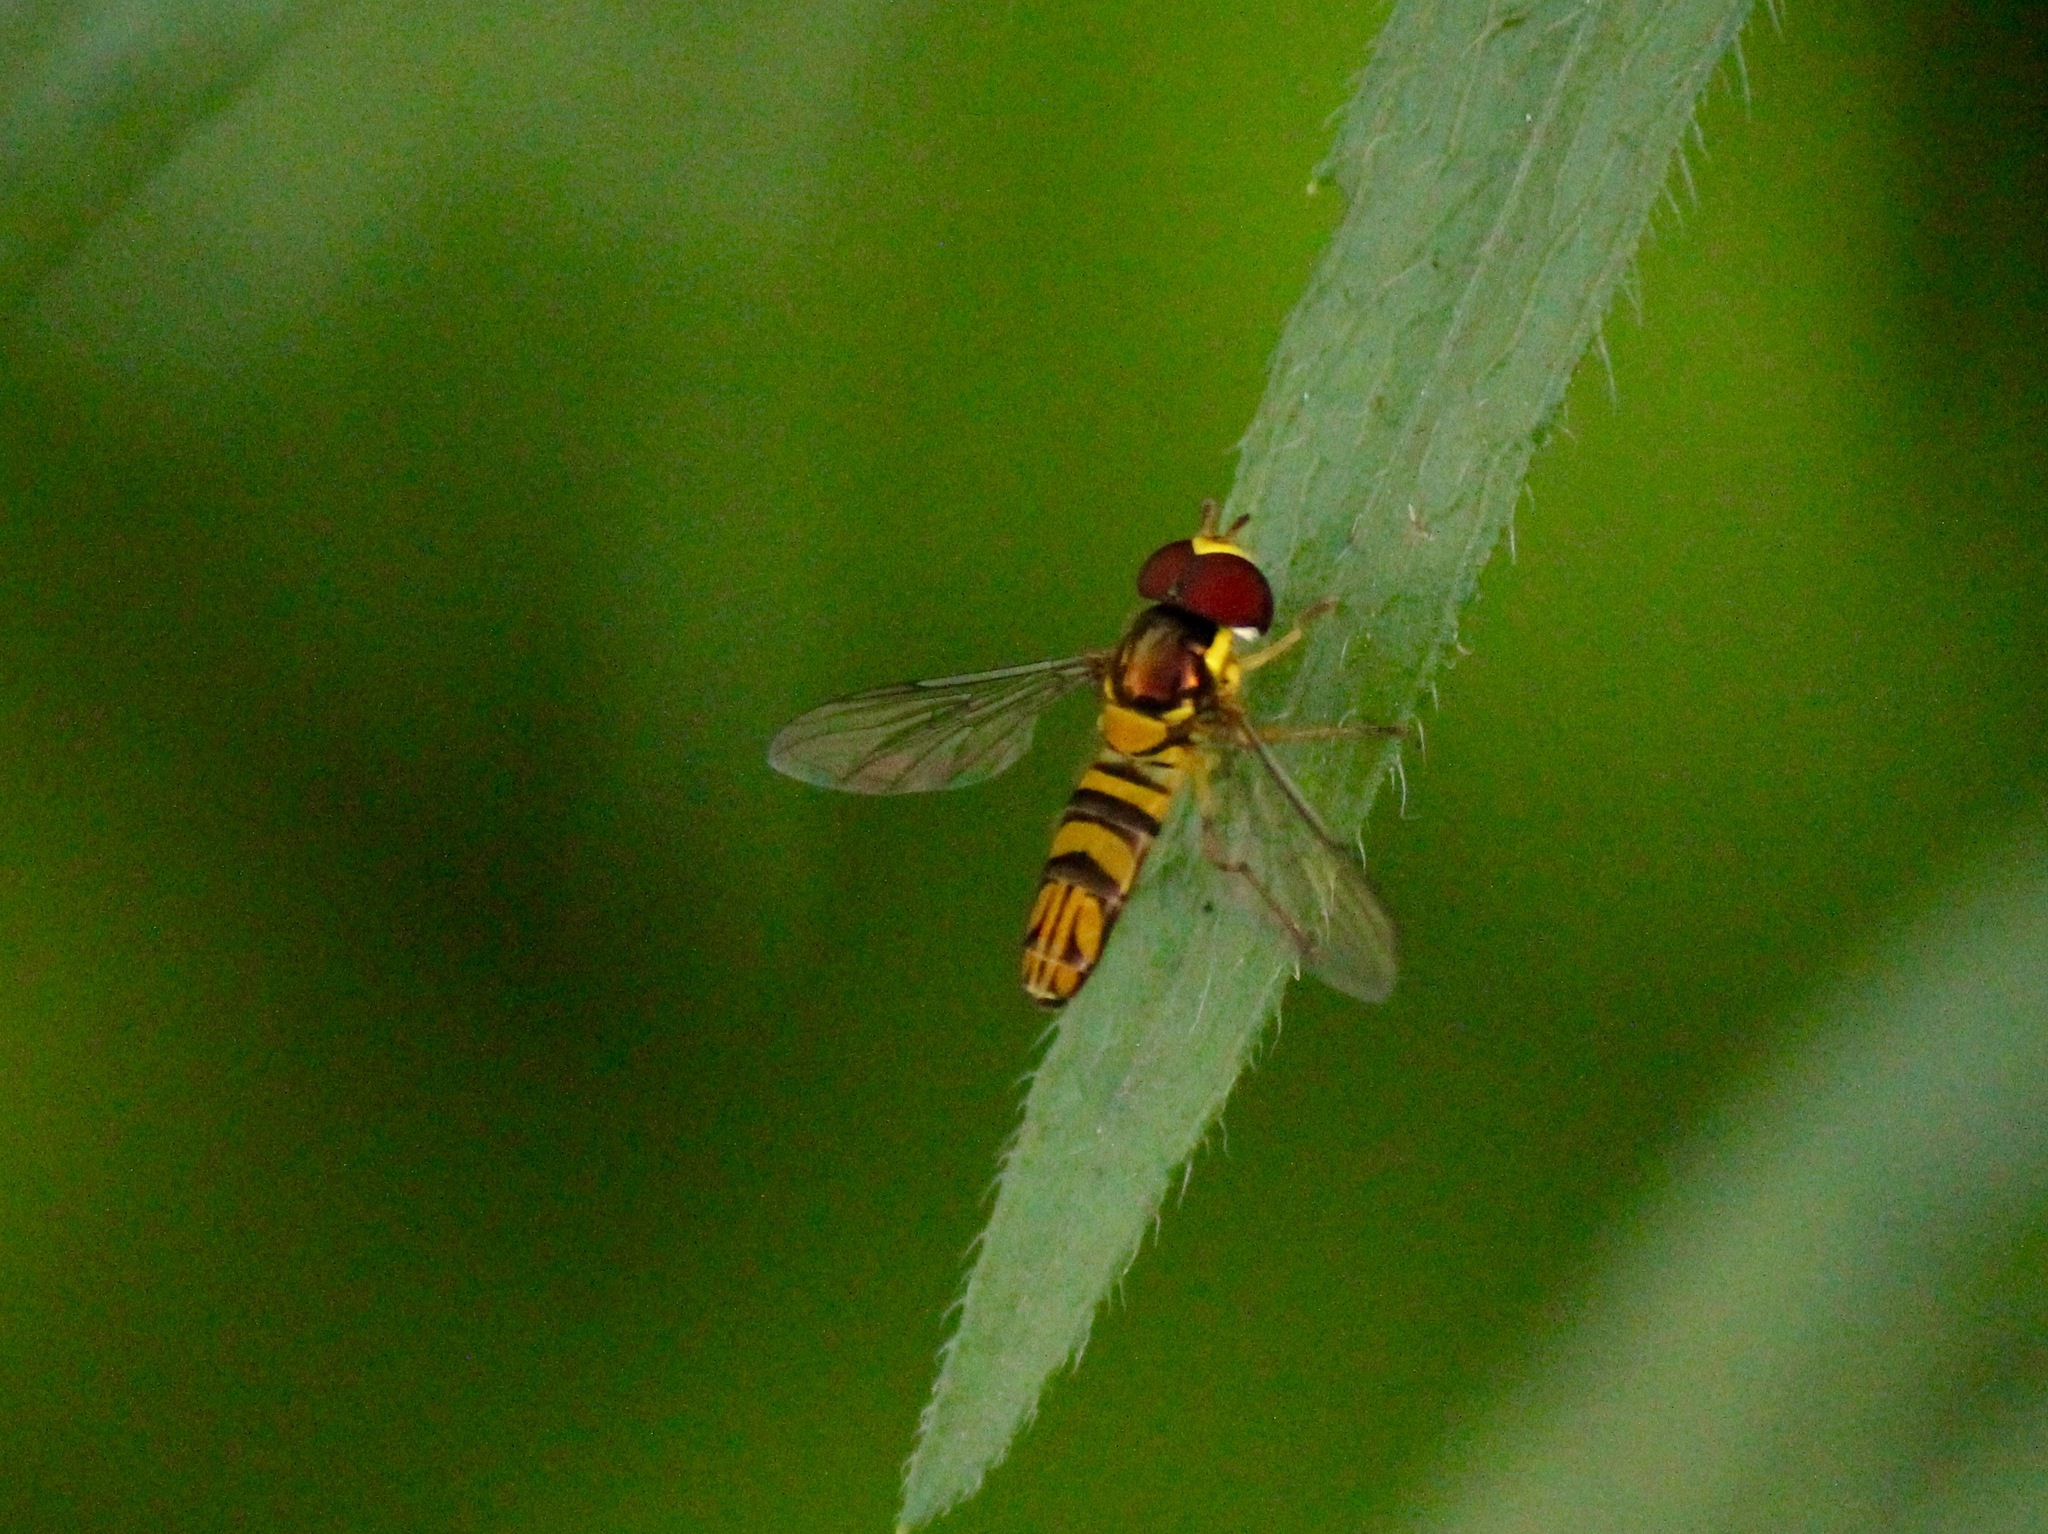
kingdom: Animalia
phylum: Arthropoda
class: Insecta
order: Diptera
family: Syrphidae
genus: Allograpta
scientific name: Allograpta obliqua
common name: Common oblique syrphid
